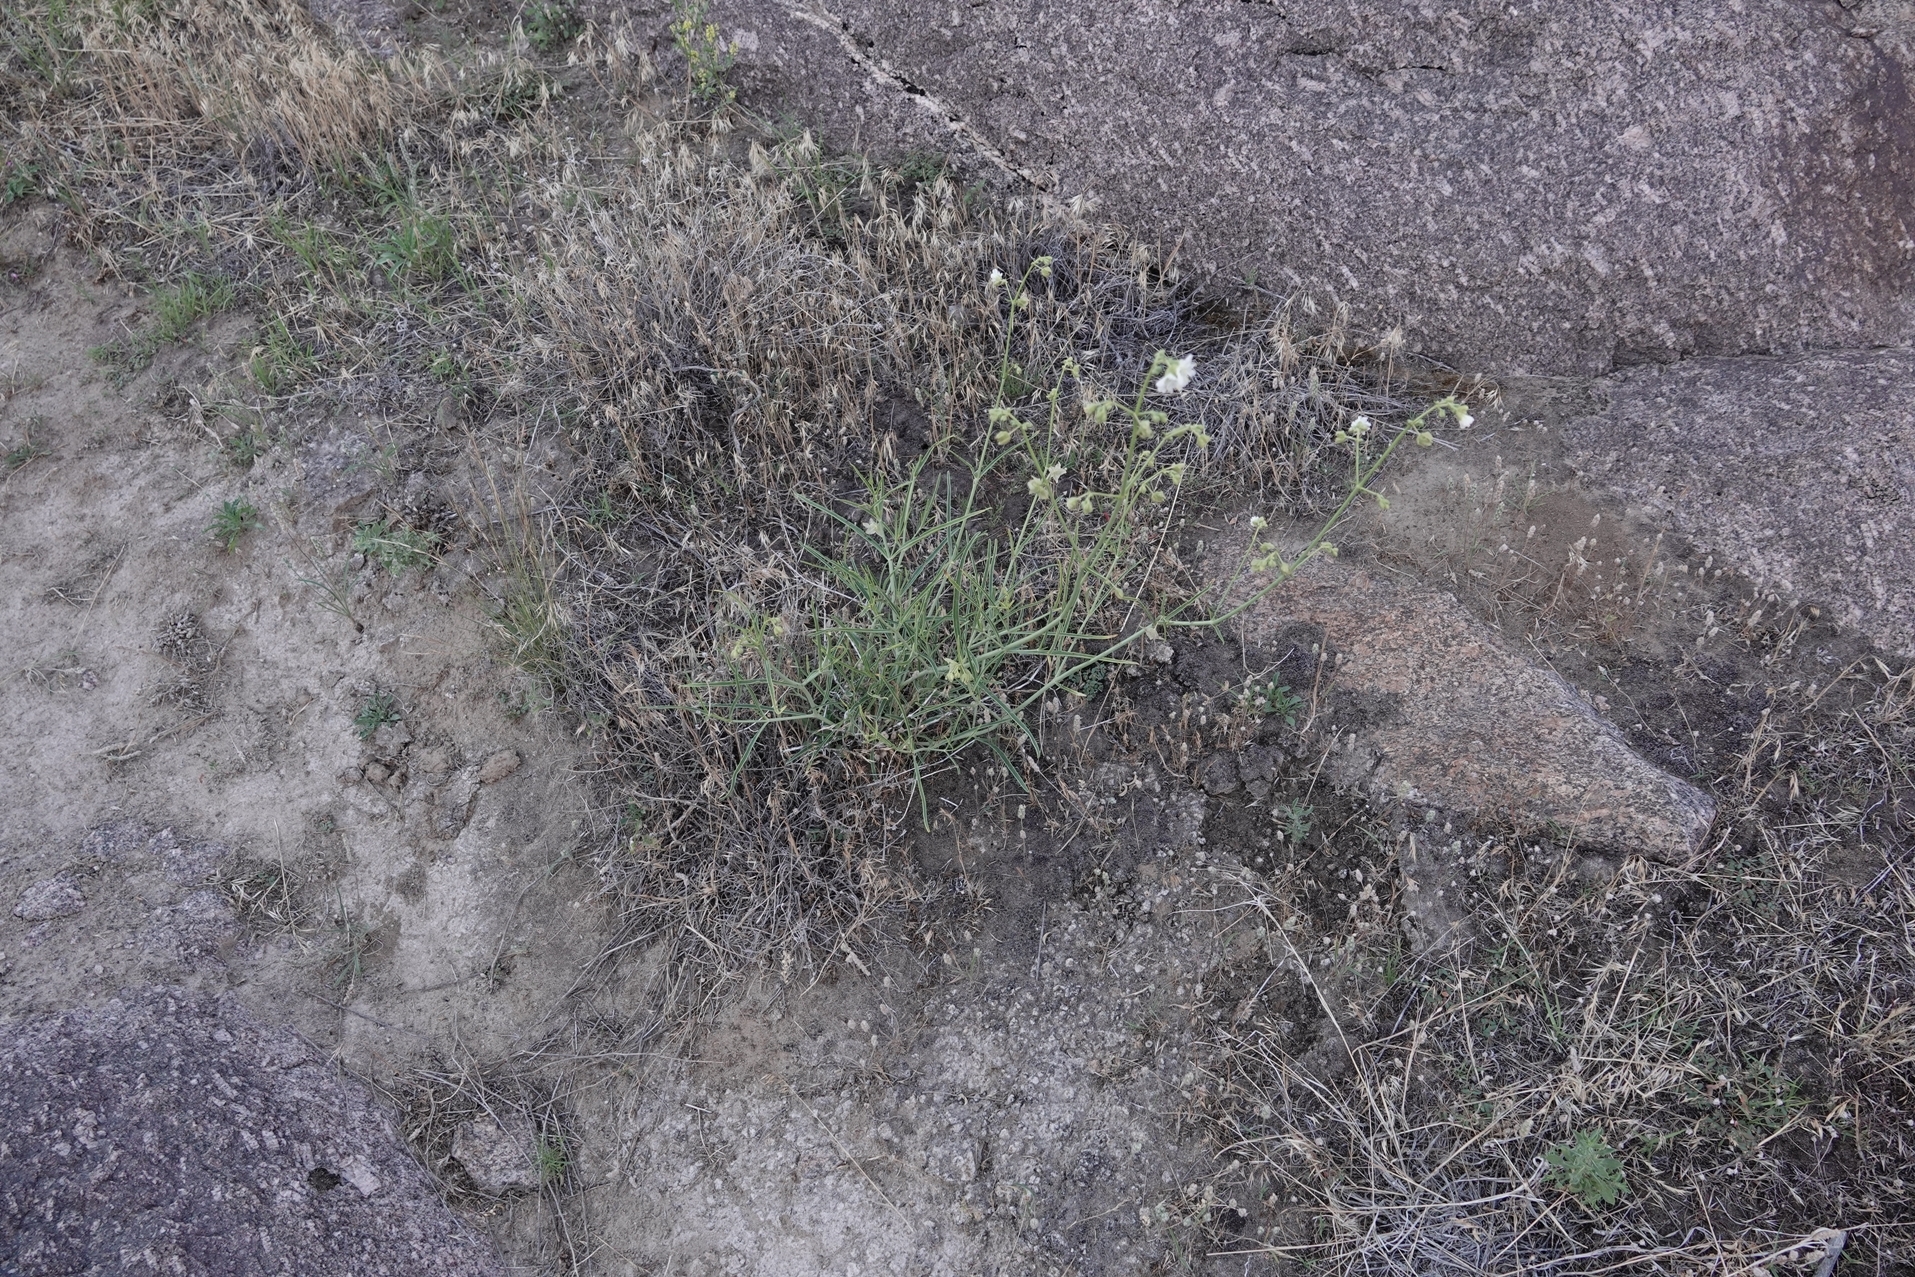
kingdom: Plantae
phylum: Tracheophyta
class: Magnoliopsida
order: Caryophyllales
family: Nyctaginaceae
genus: Mirabilis
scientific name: Mirabilis linearis
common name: Linear-leaved four-o'clock
